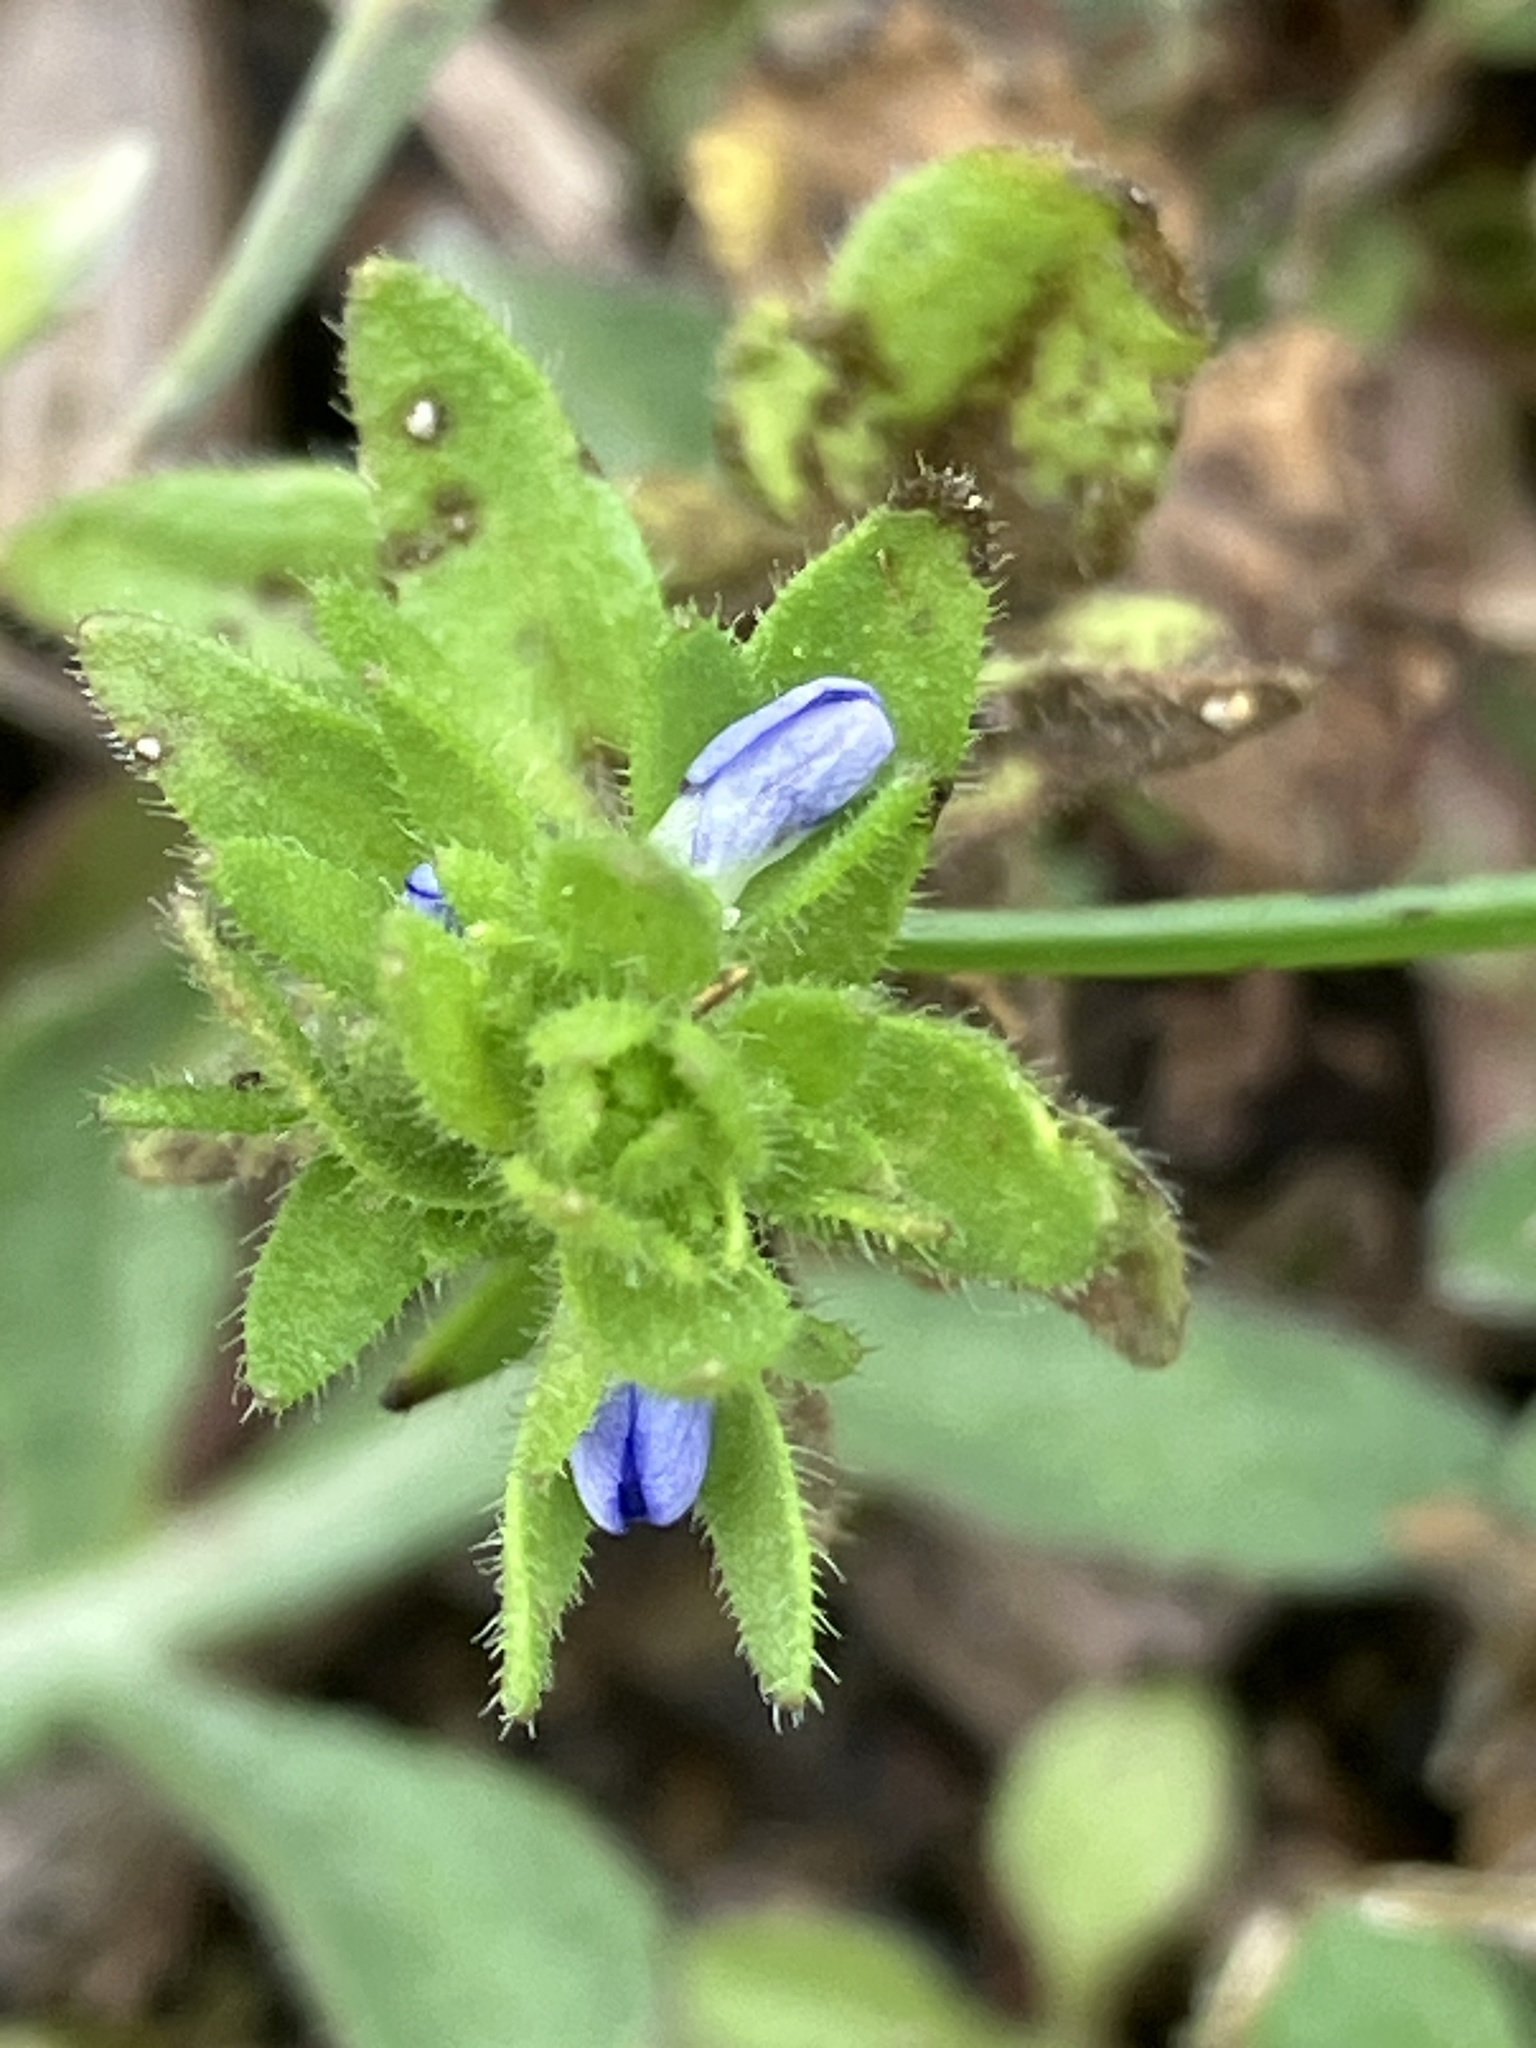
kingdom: Plantae
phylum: Tracheophyta
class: Magnoliopsida
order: Lamiales
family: Plantaginaceae
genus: Veronica
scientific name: Veronica arvensis
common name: Corn speedwell
